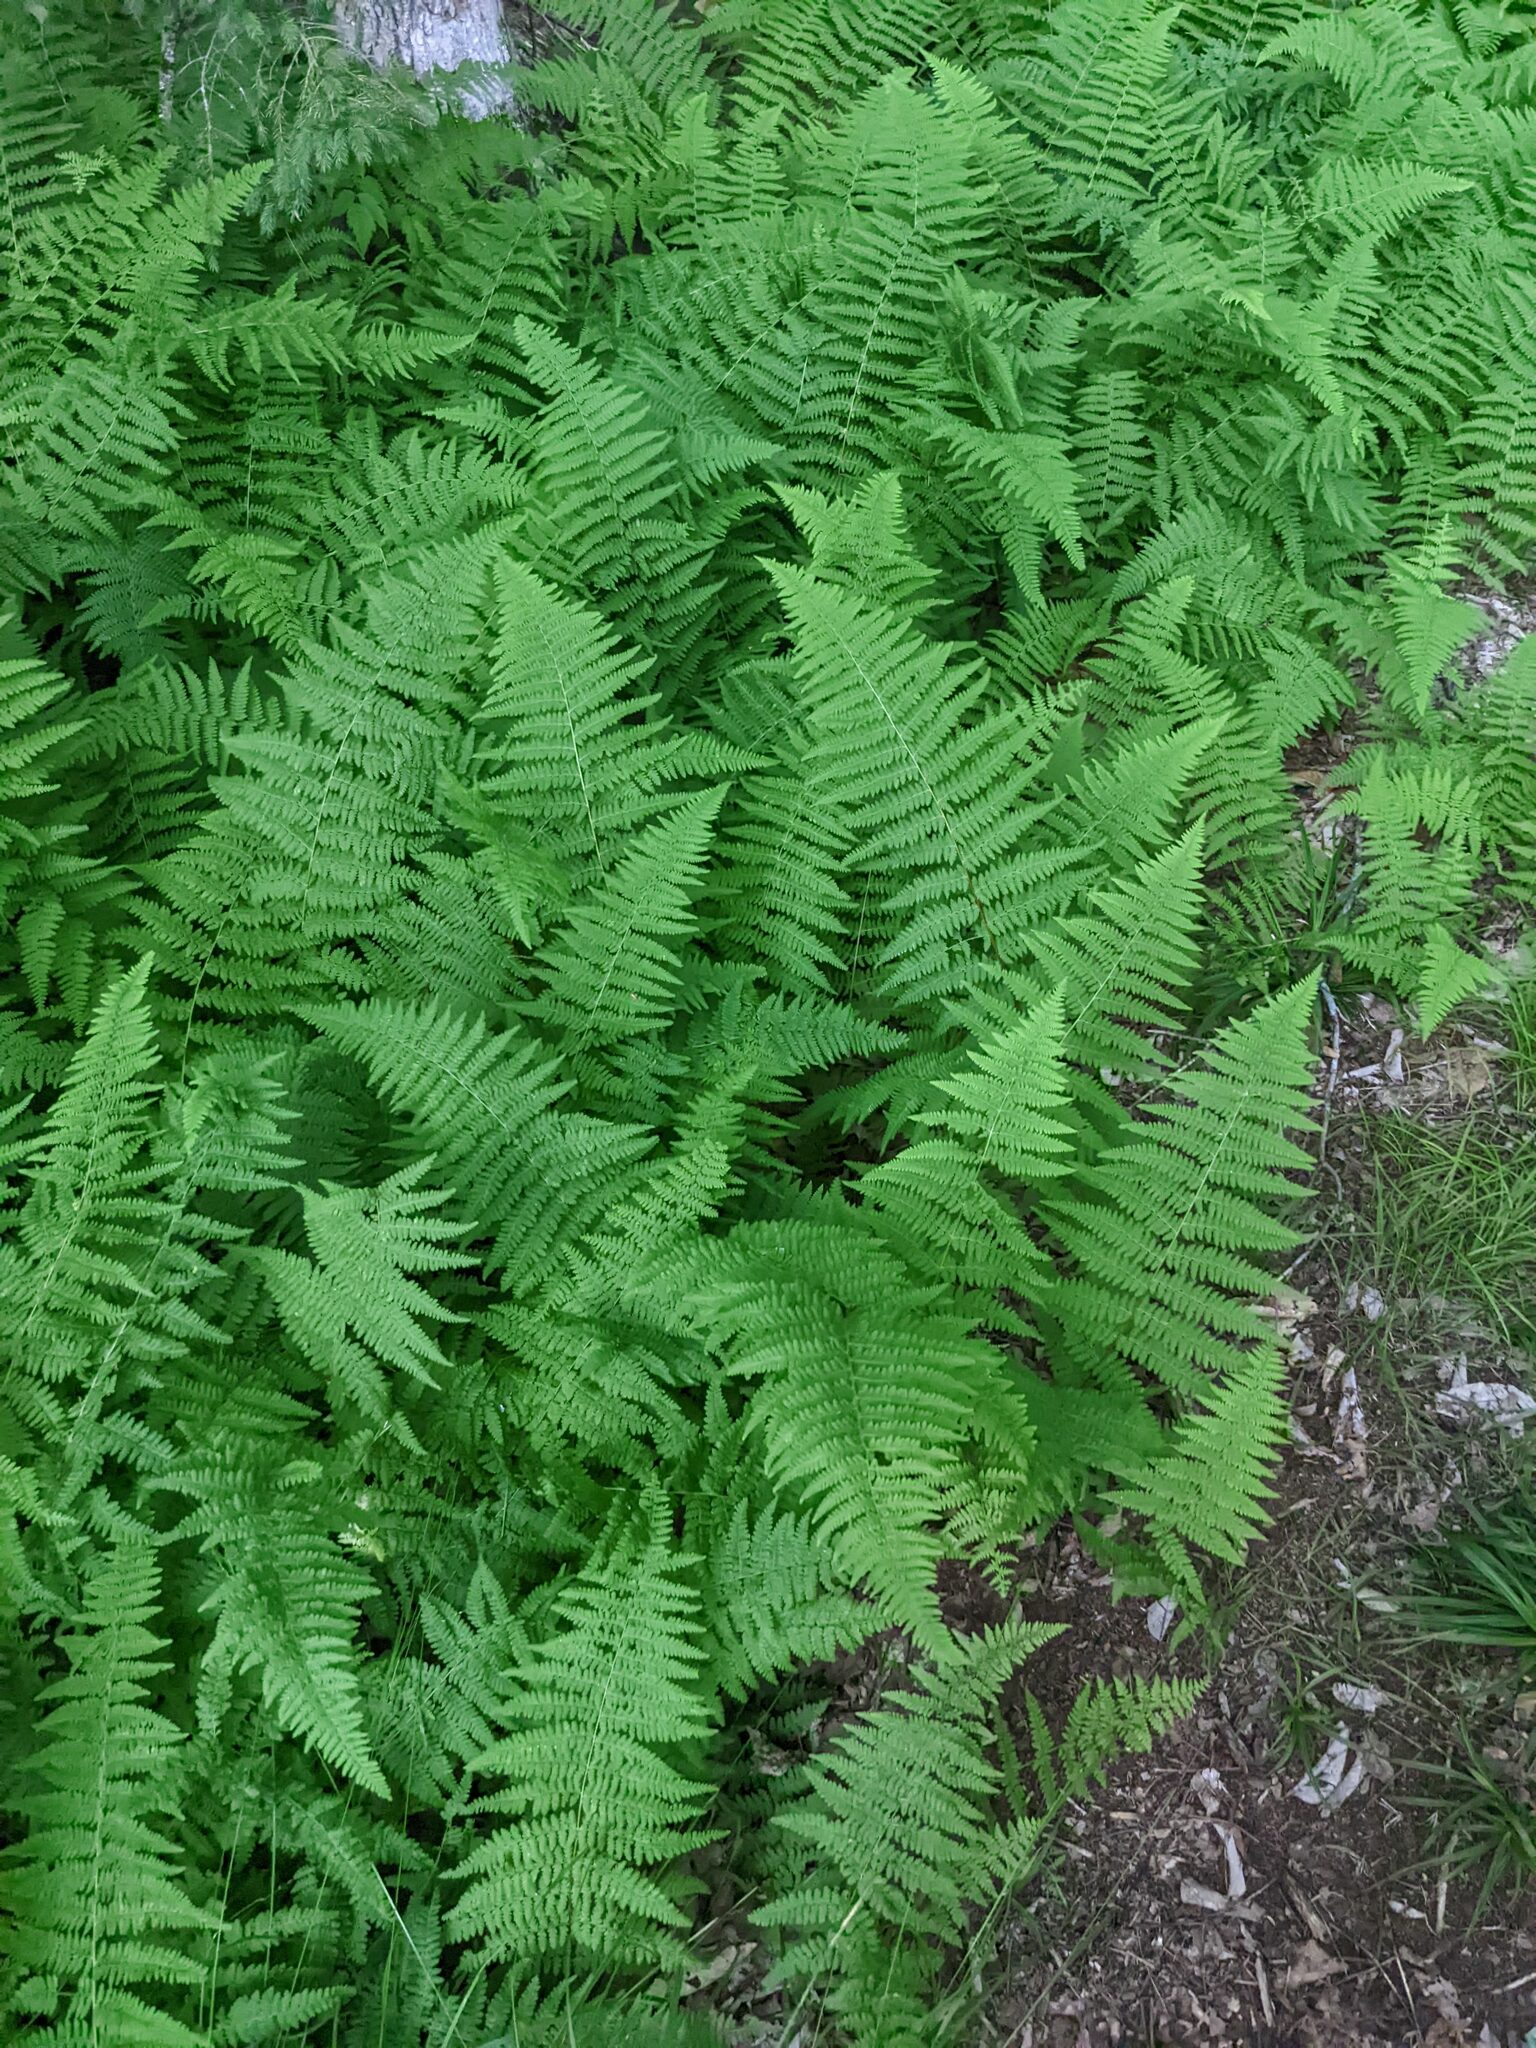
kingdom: Plantae
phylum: Tracheophyta
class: Polypodiopsida
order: Polypodiales
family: Dennstaedtiaceae
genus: Sitobolium
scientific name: Sitobolium punctilobum
